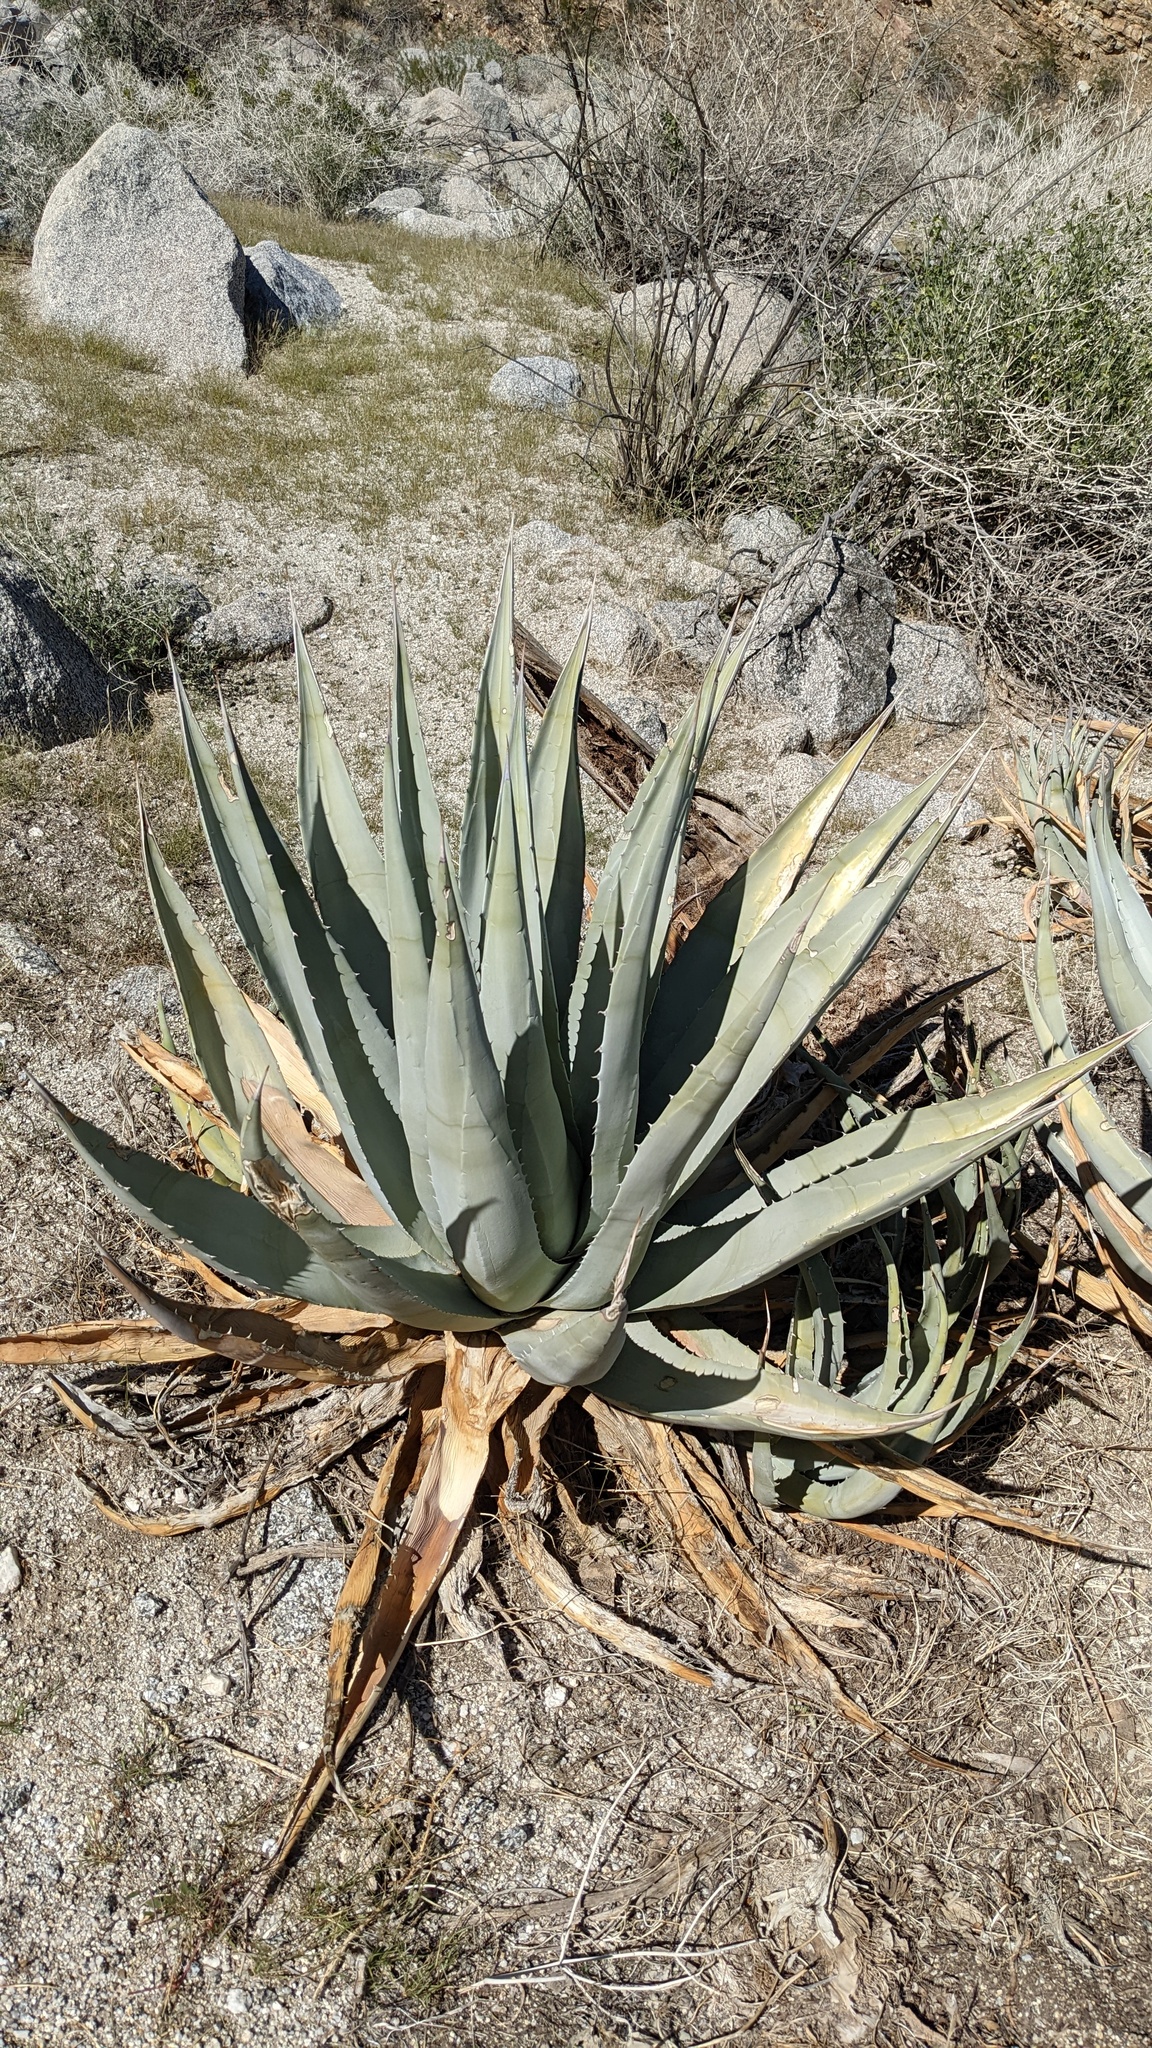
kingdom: Plantae
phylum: Tracheophyta
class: Liliopsida
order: Asparagales
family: Asparagaceae
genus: Agave
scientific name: Agave deserti
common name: Desert agave
